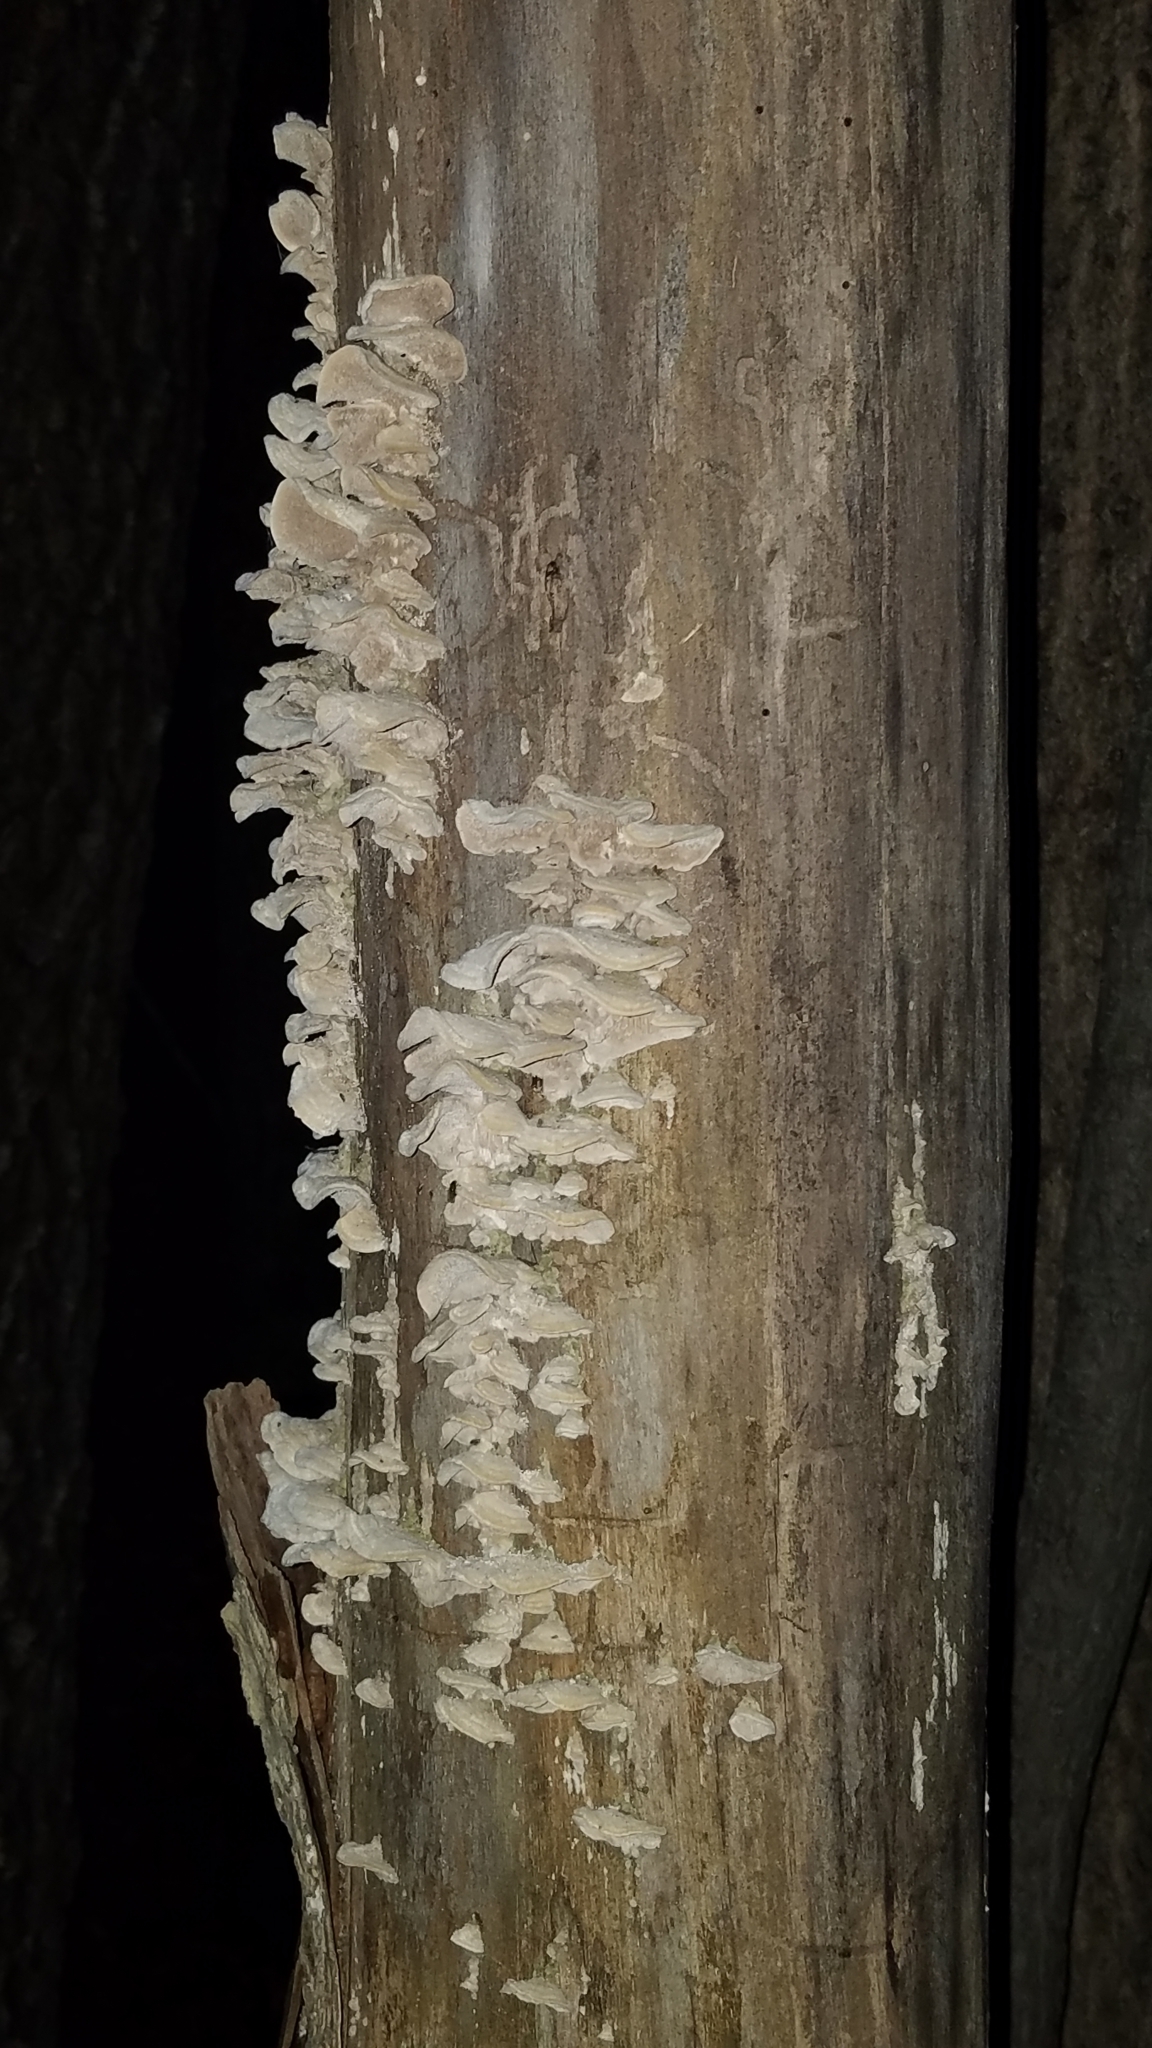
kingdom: Fungi
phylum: Basidiomycota
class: Agaricomycetes
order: Polyporales
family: Cerrenaceae
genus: Cerrena
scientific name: Cerrena unicolor
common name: Mossy maze polypore
